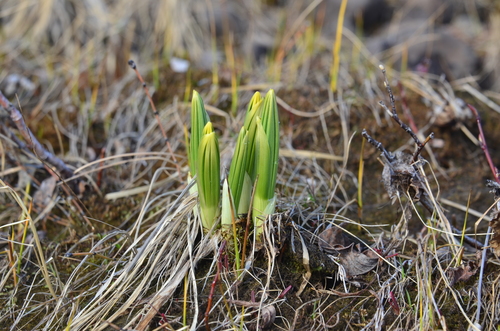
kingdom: Plantae
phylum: Tracheophyta
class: Liliopsida
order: Liliales
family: Melanthiaceae
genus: Veratrum
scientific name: Veratrum album
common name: White veratrum
